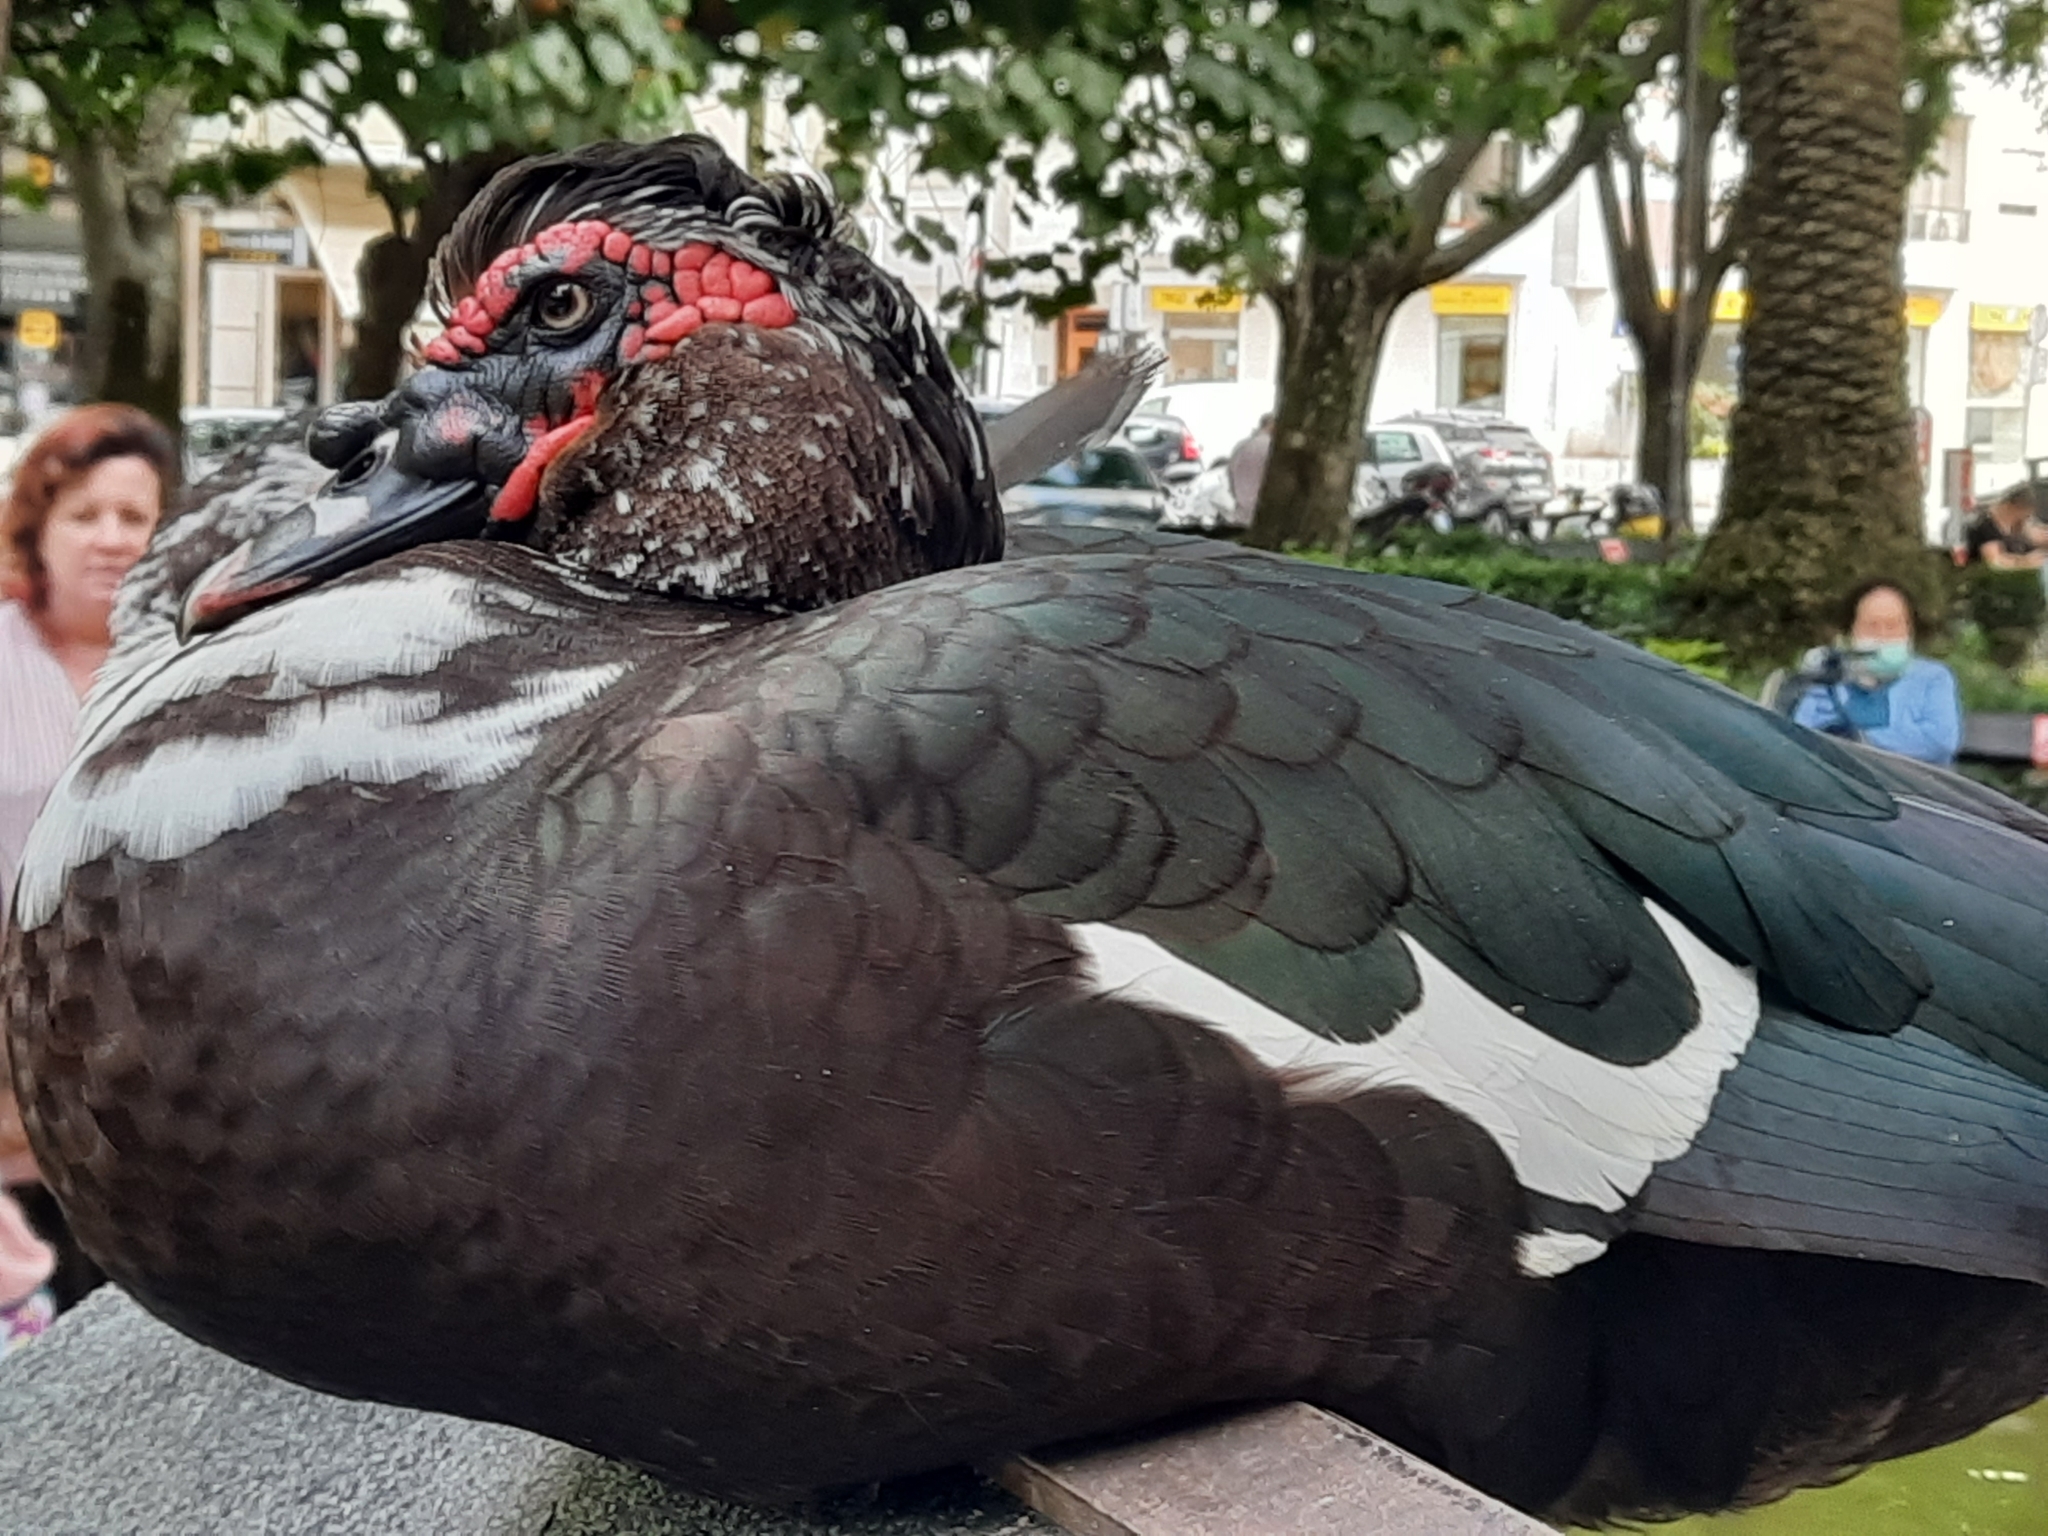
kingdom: Animalia
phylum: Chordata
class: Aves
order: Anseriformes
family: Anatidae
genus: Cairina
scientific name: Cairina moschata
